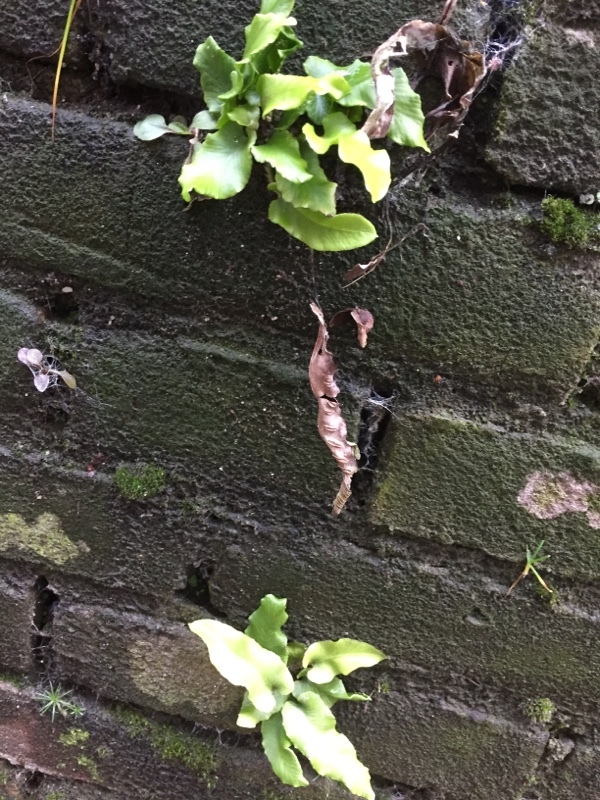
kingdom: Plantae
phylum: Tracheophyta
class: Polypodiopsida
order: Polypodiales
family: Aspleniaceae
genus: Asplenium
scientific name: Asplenium scolopendrium
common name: Hart's-tongue fern
